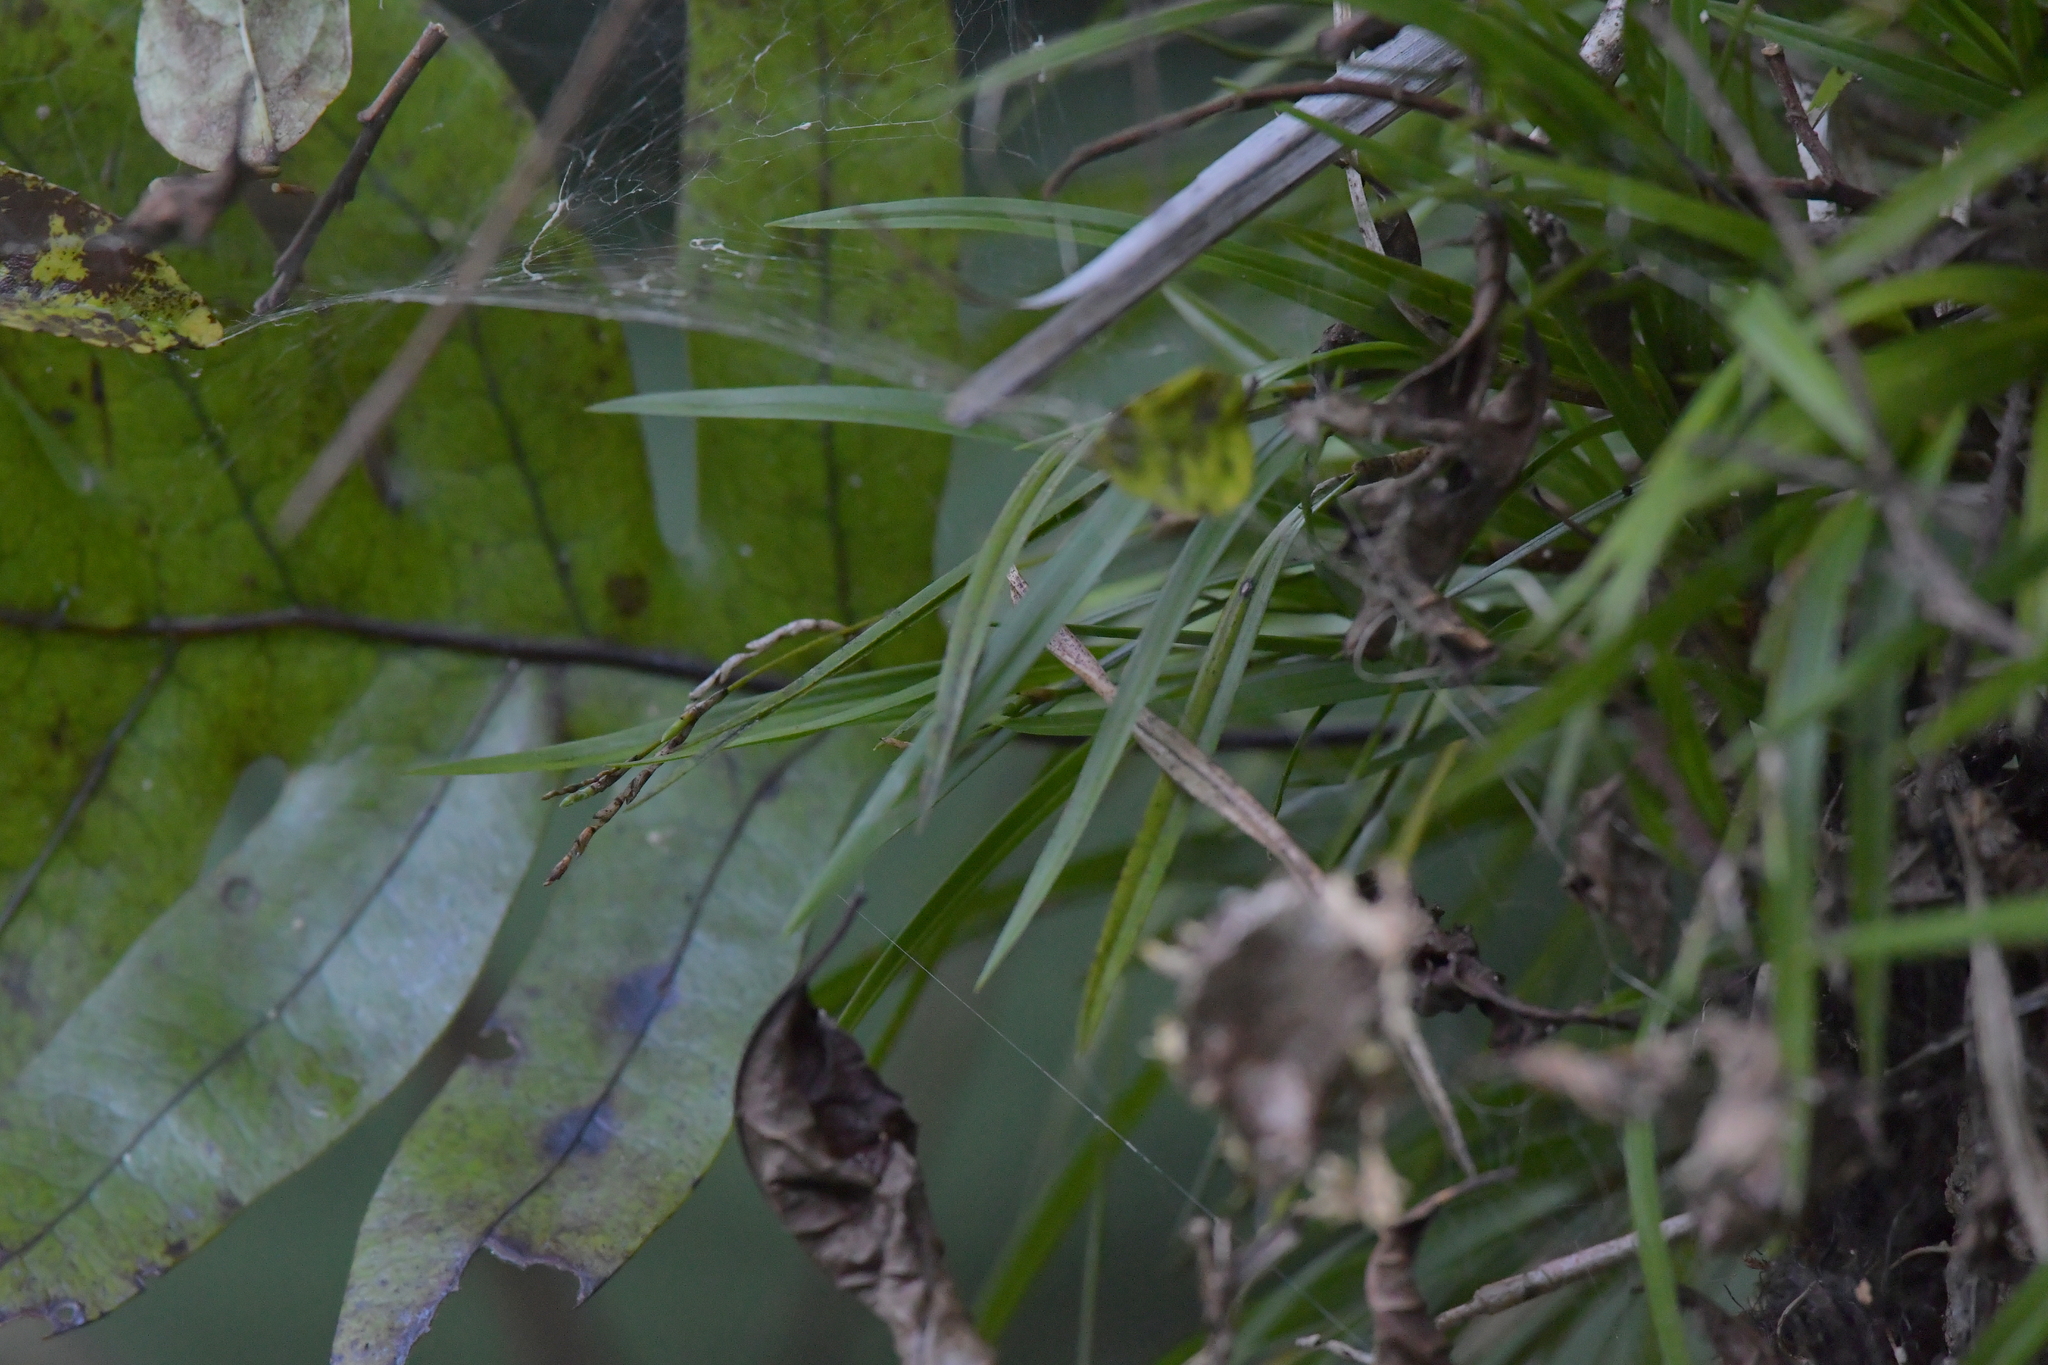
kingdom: Plantae
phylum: Tracheophyta
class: Liliopsida
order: Asparagales
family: Orchidaceae
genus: Earina
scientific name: Earina autumnalis
